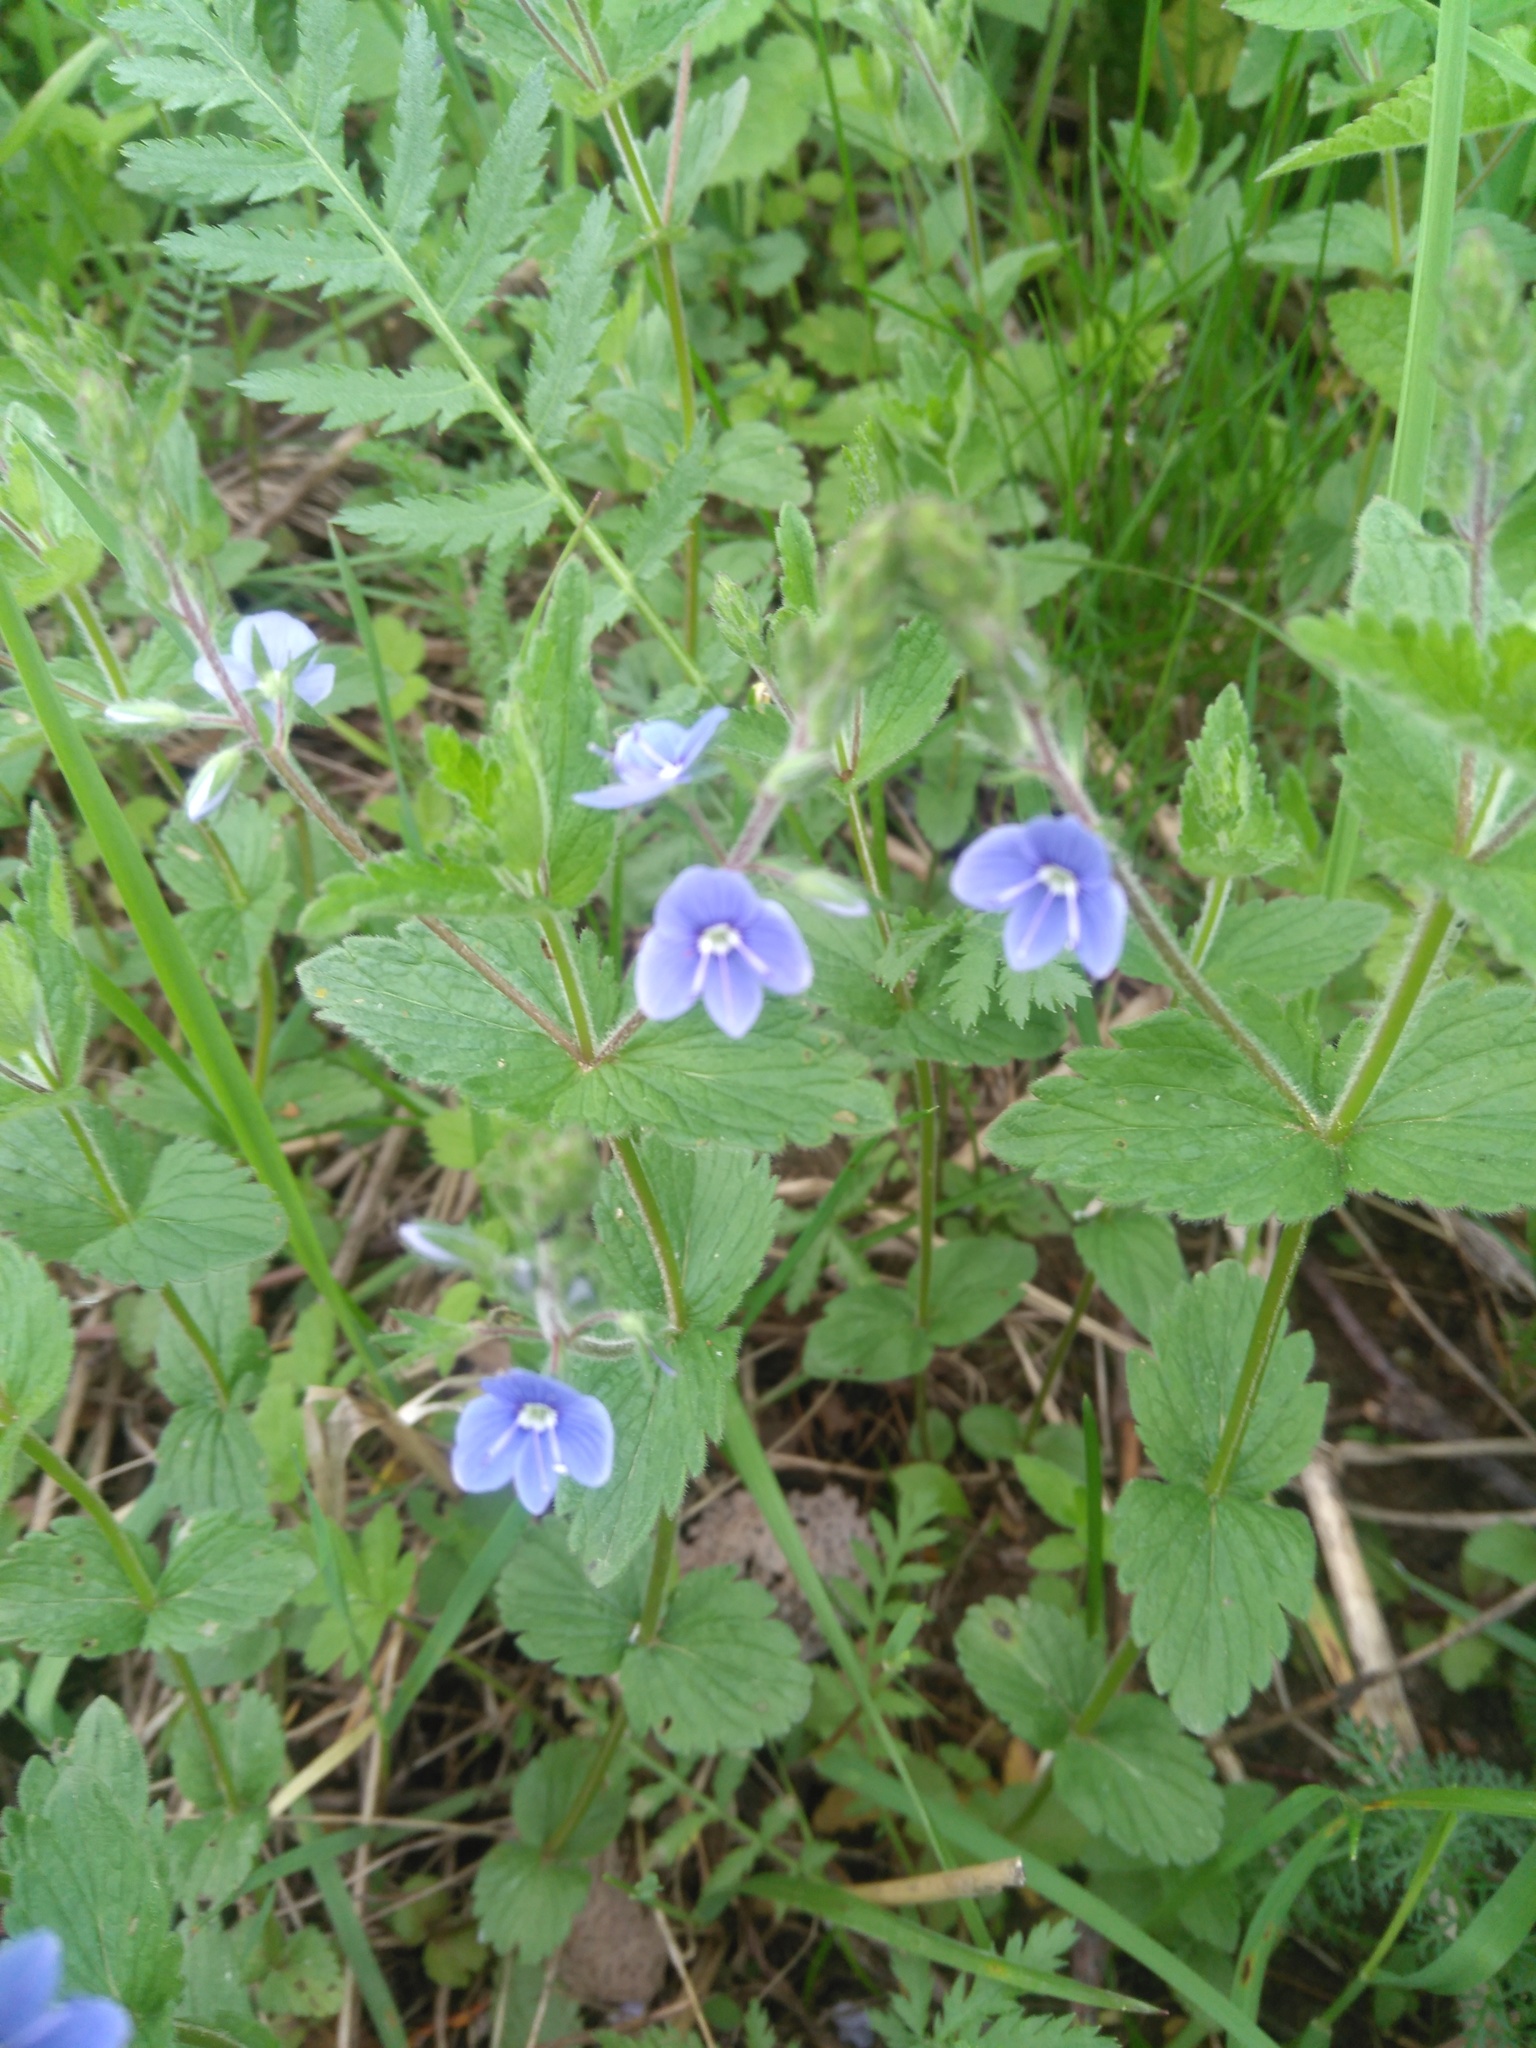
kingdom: Plantae
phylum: Tracheophyta
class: Magnoliopsida
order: Lamiales
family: Plantaginaceae
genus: Veronica
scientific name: Veronica chamaedrys
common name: Germander speedwell
